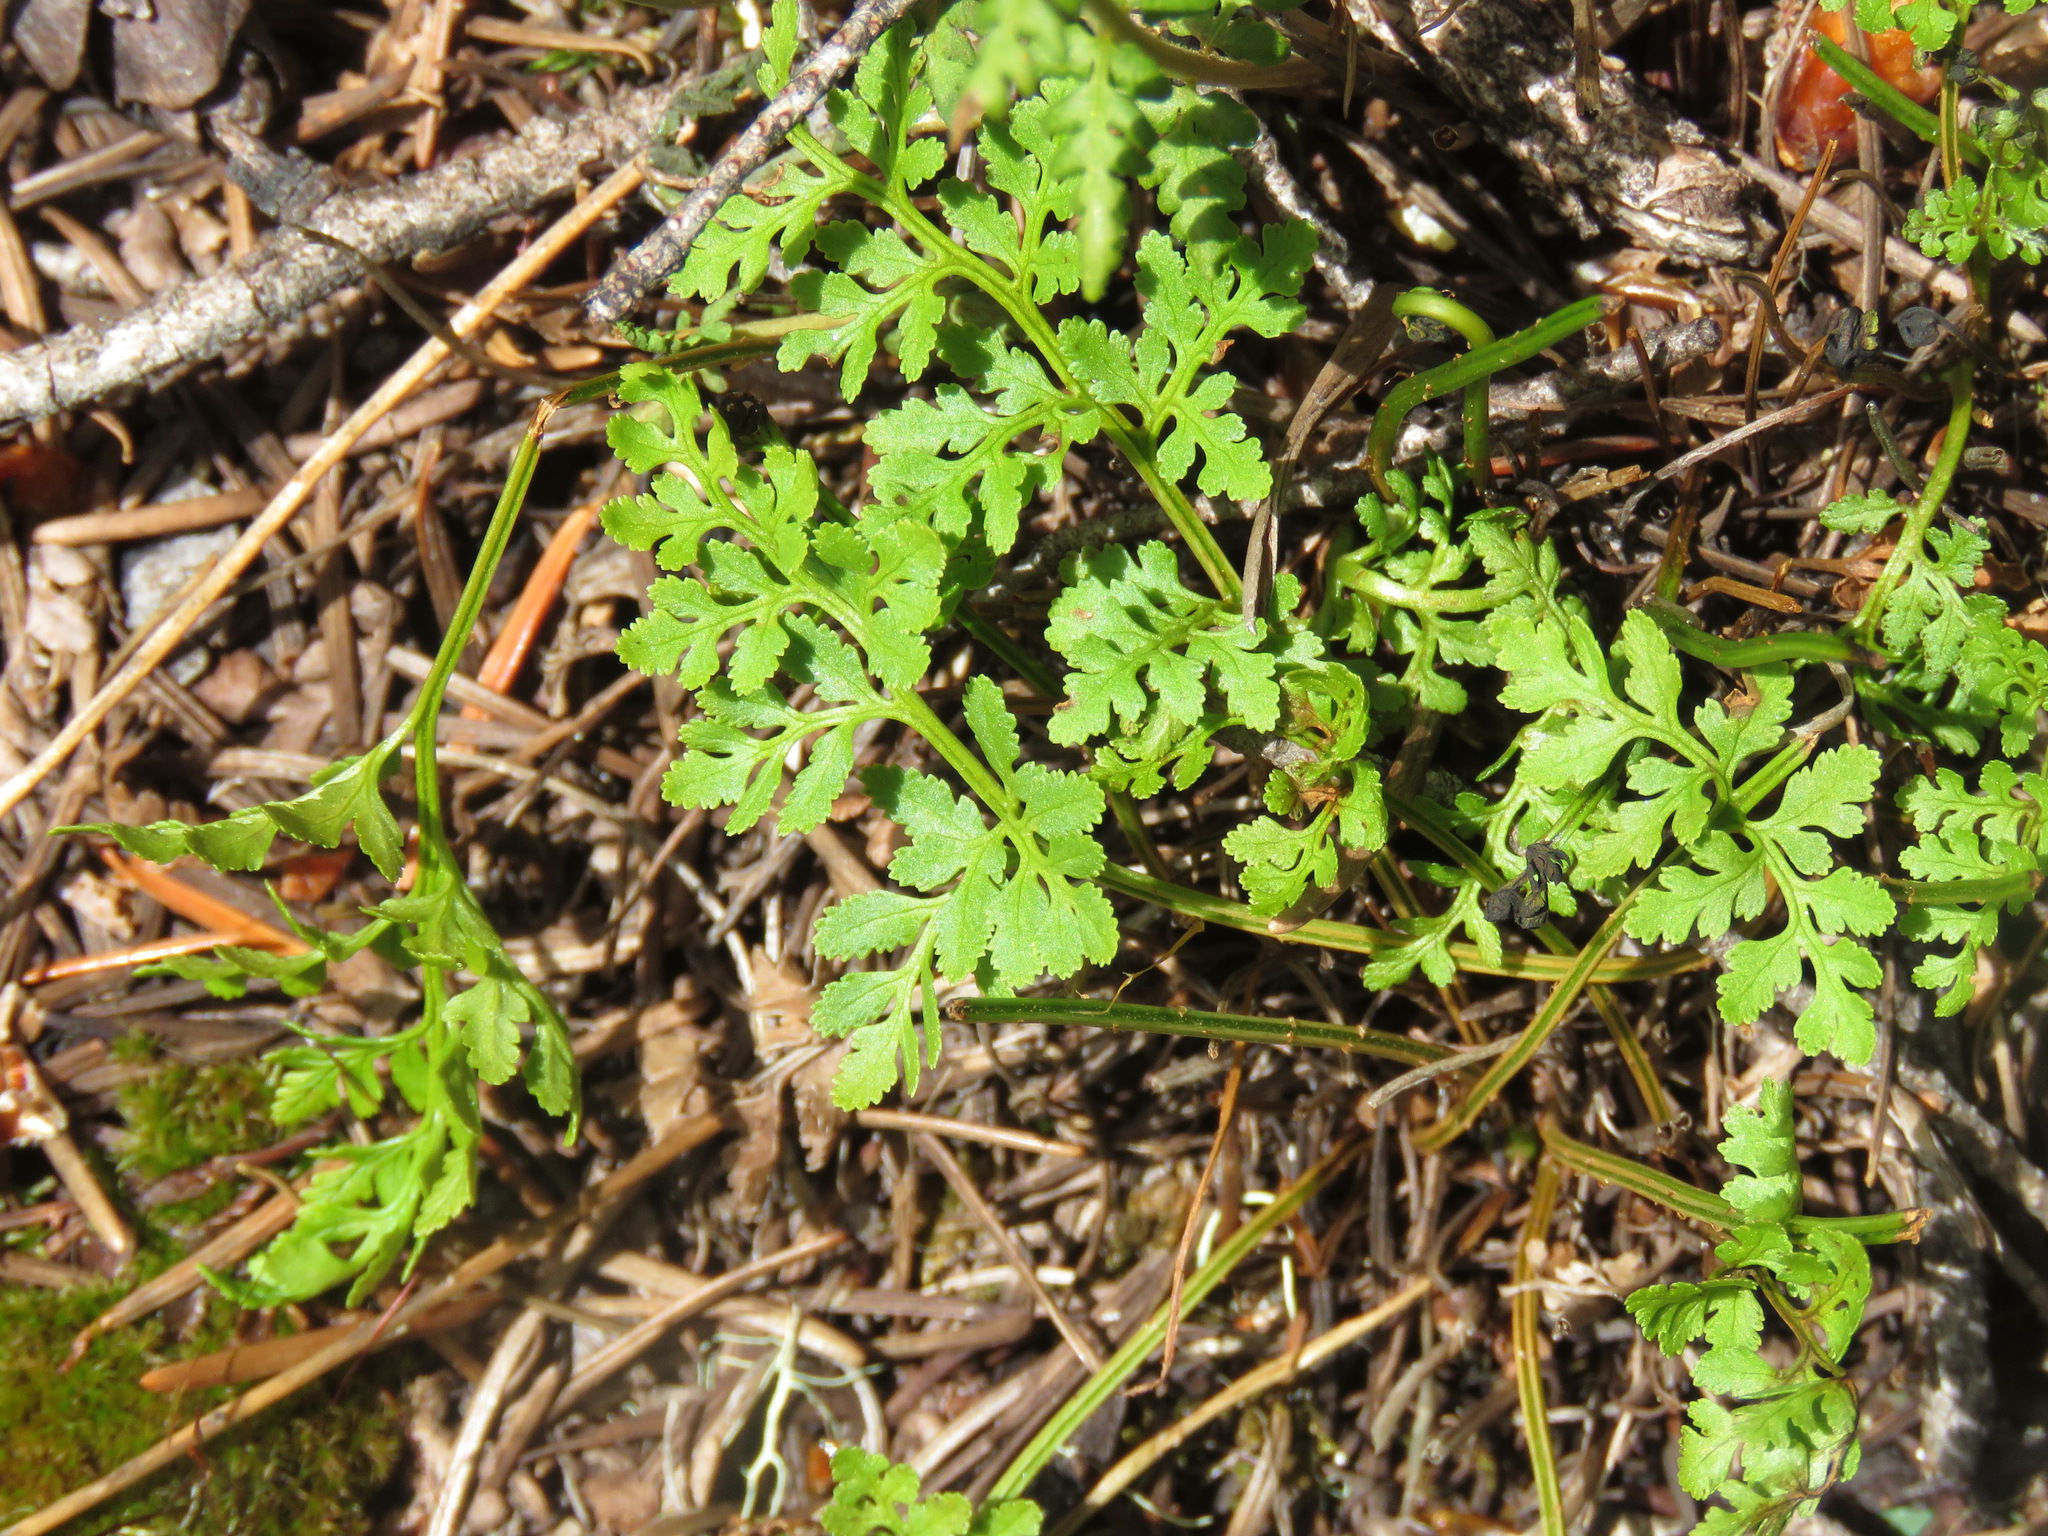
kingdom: Plantae
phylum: Tracheophyta
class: Polypodiopsida
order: Polypodiales
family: Pteridaceae
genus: Cryptogramma
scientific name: Cryptogramma acrostichoides
